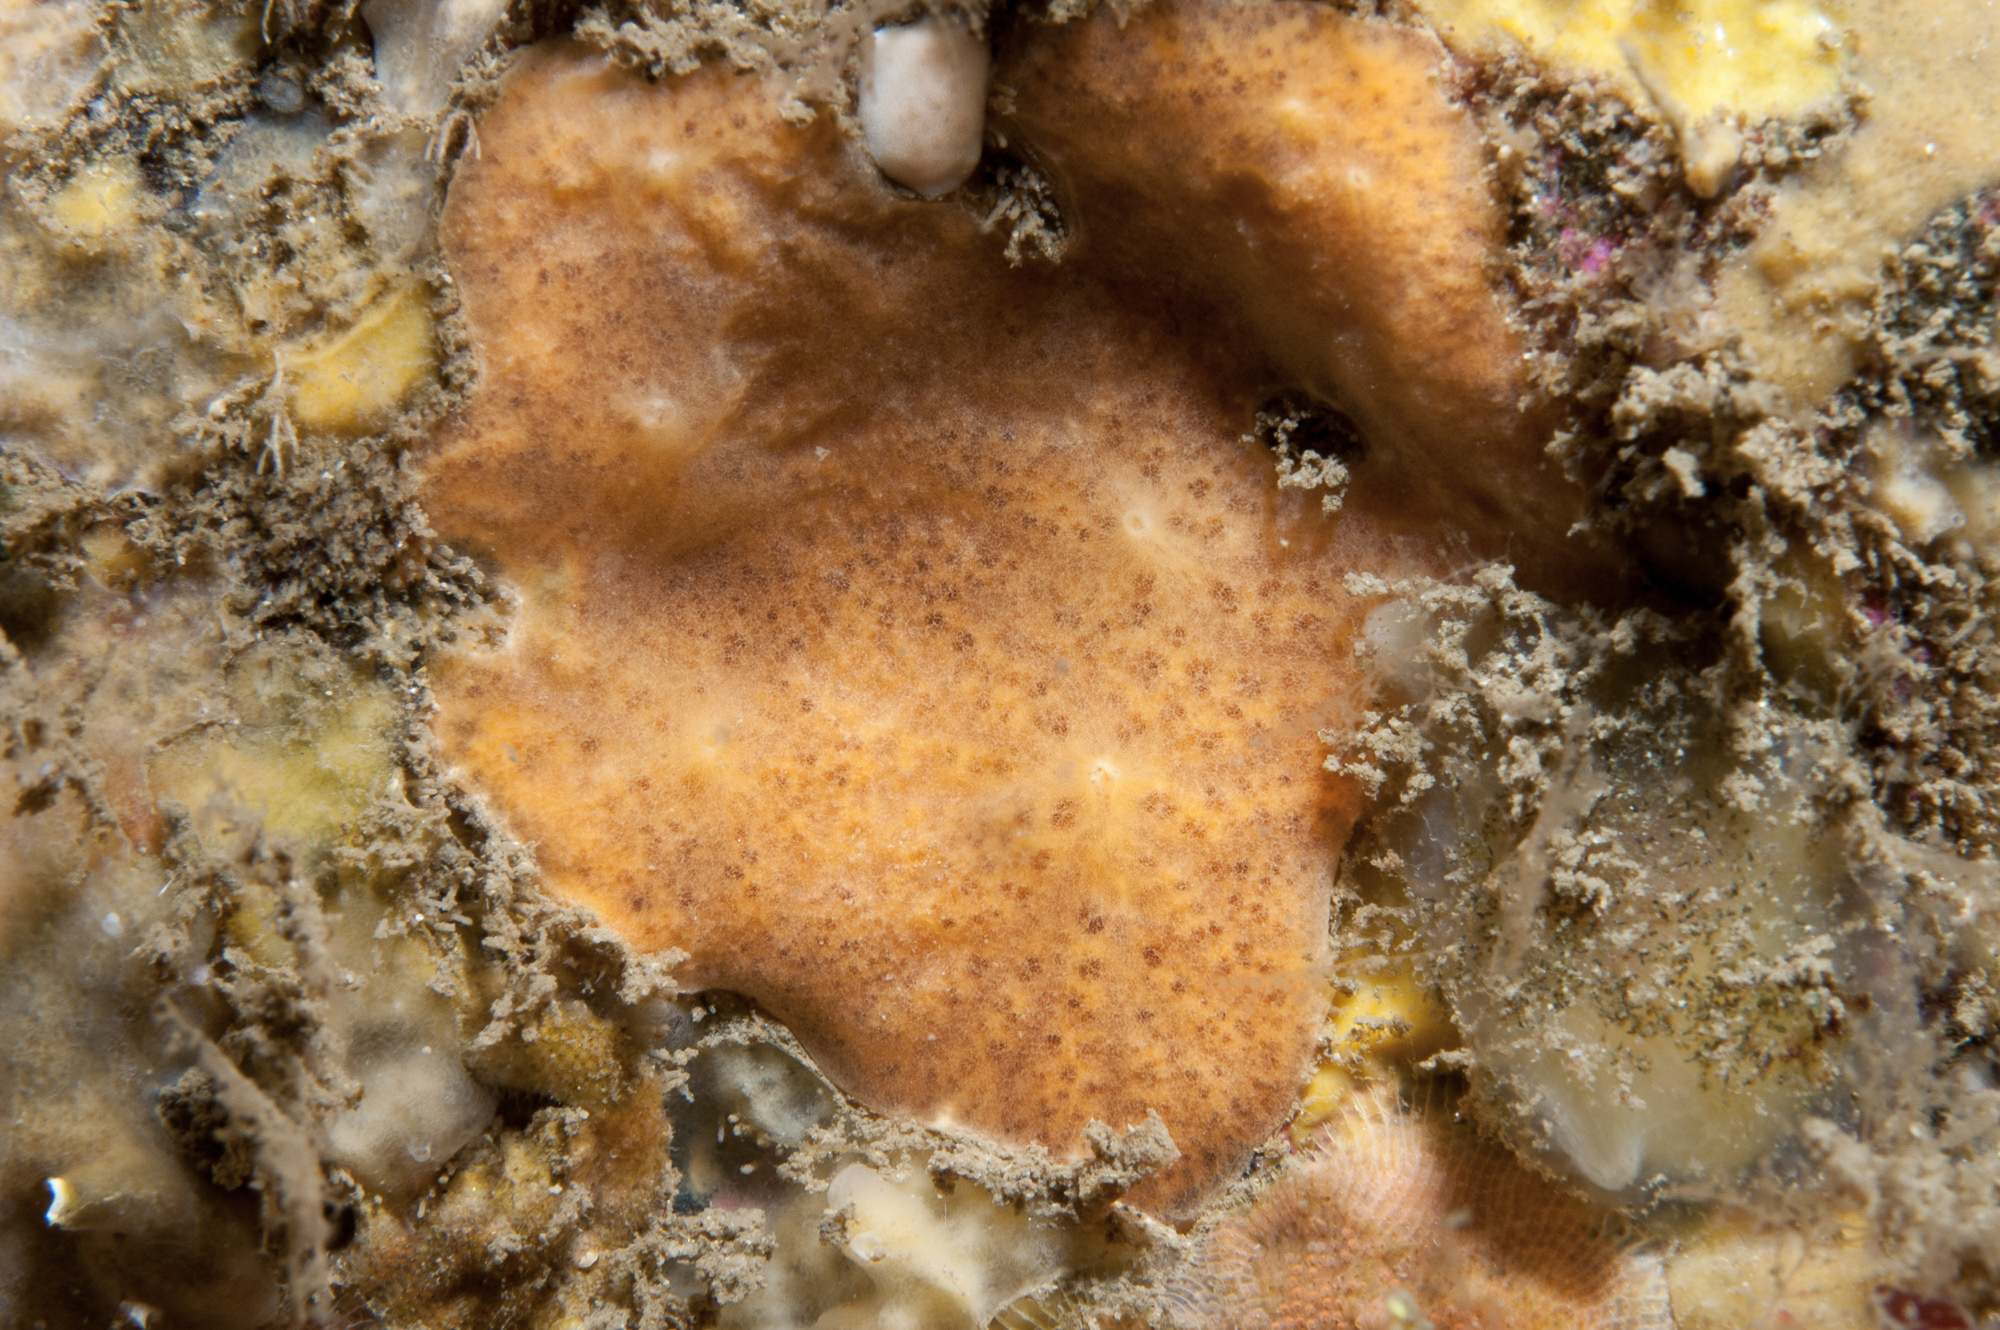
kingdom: Animalia
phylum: Porifera
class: Demospongiae
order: Poecilosclerida
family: Myxillidae
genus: Myxilla
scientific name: Myxilla fimbriata
